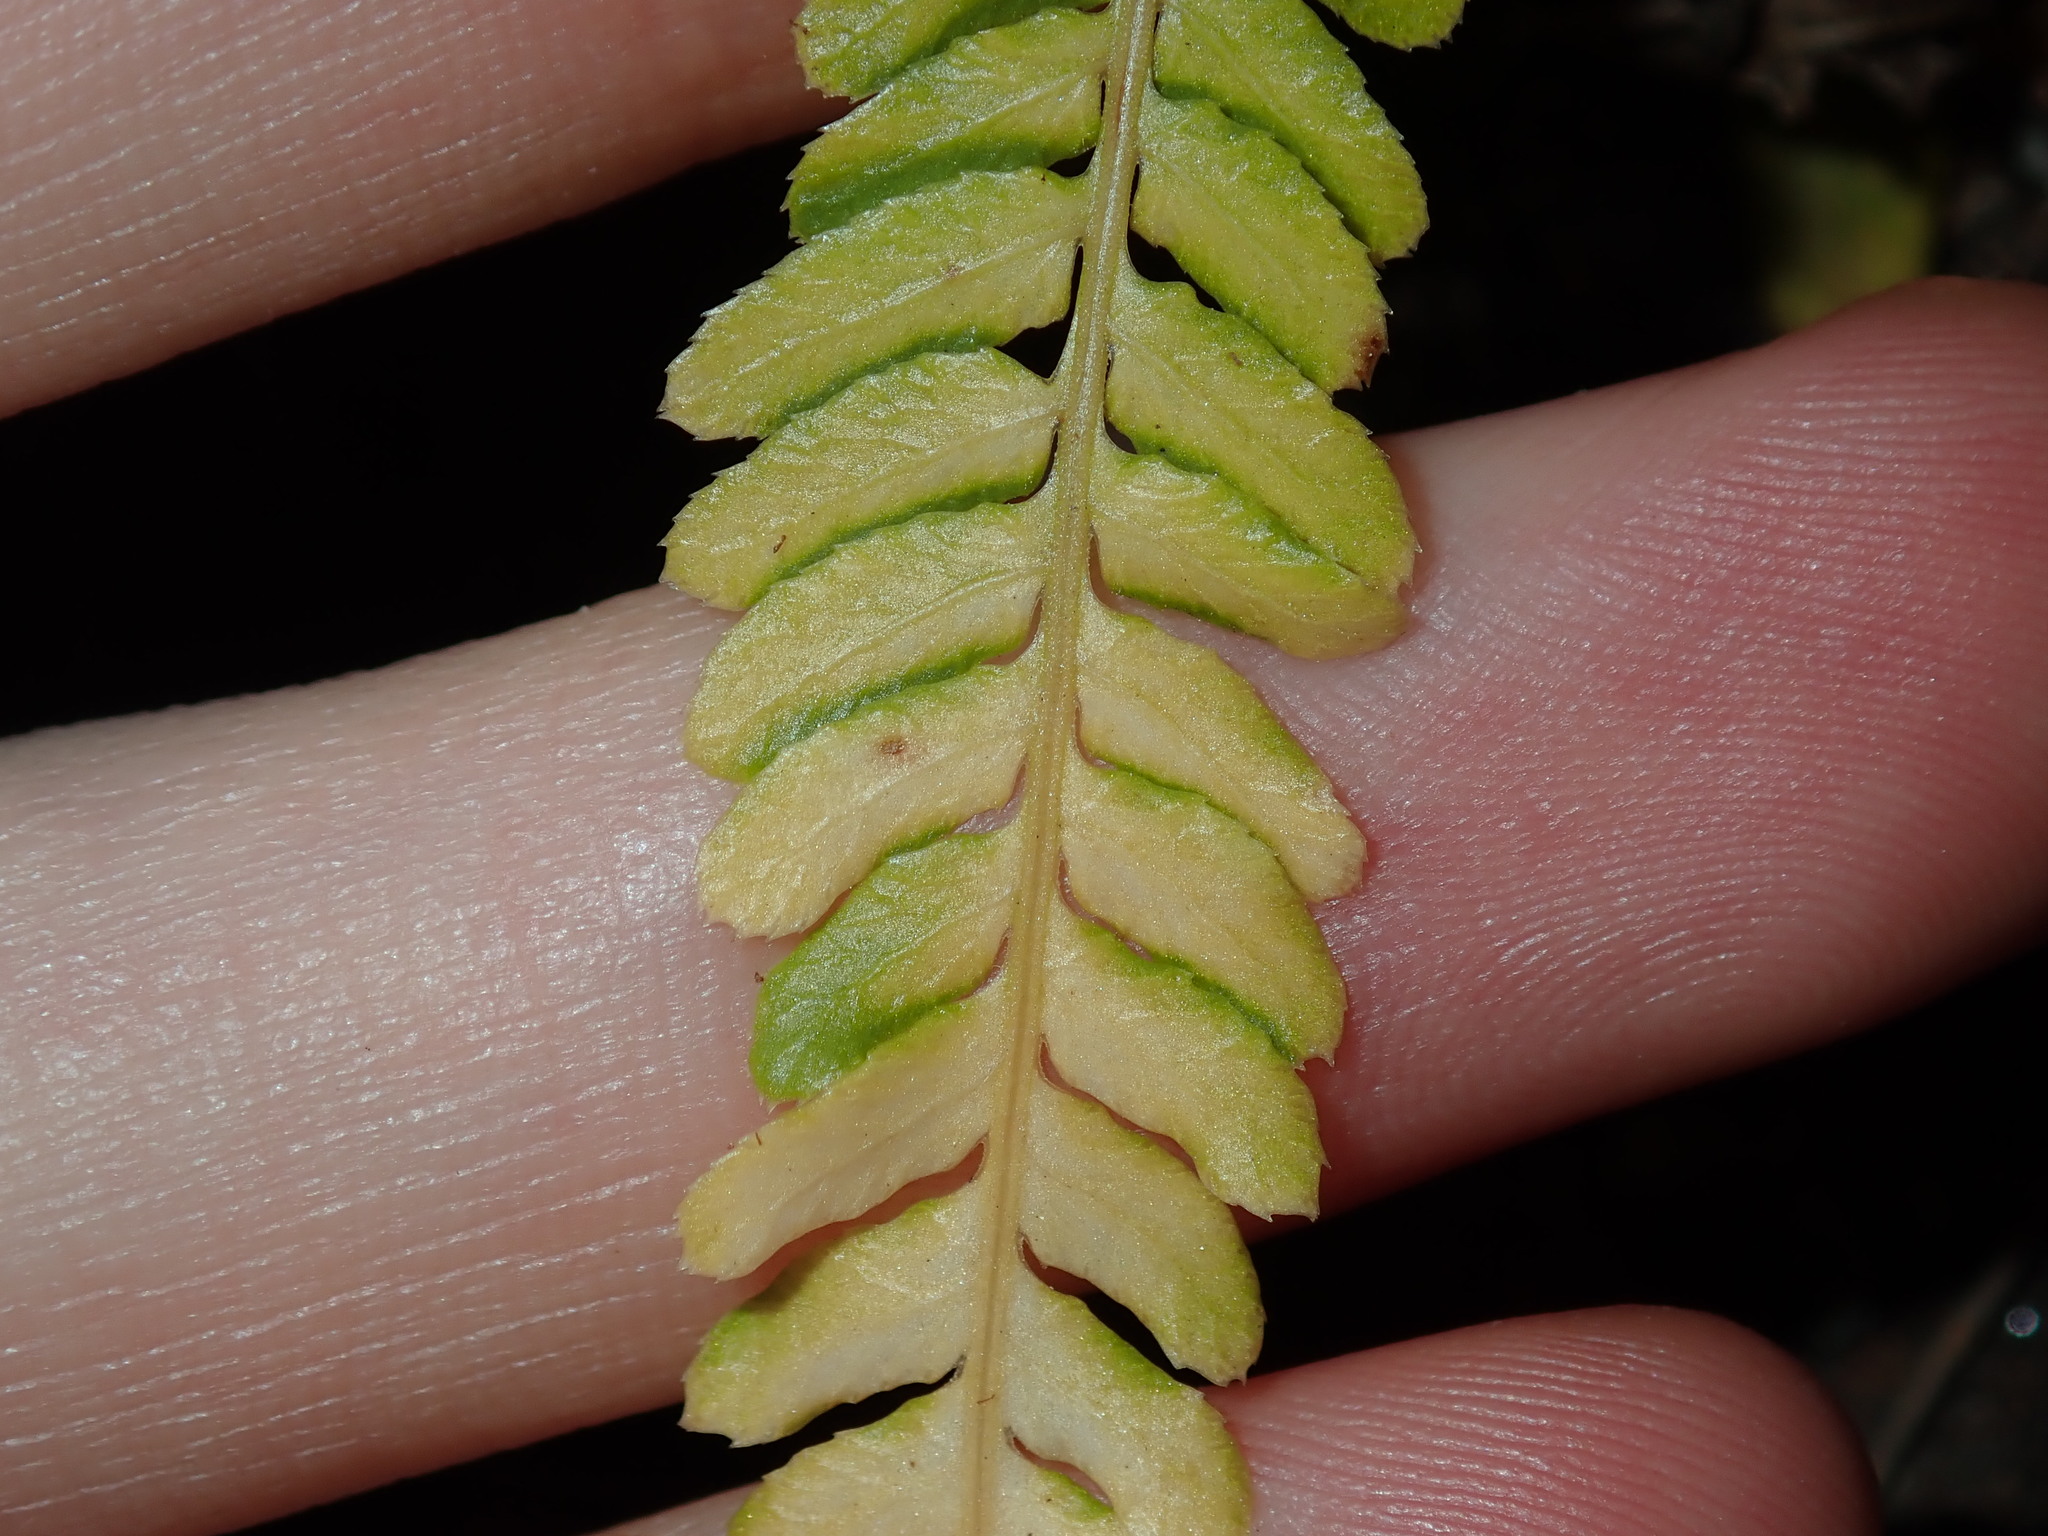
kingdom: Plantae
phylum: Tracheophyta
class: Polypodiopsida
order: Polypodiales
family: Blechnaceae
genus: Doodia
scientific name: Doodia caudata
